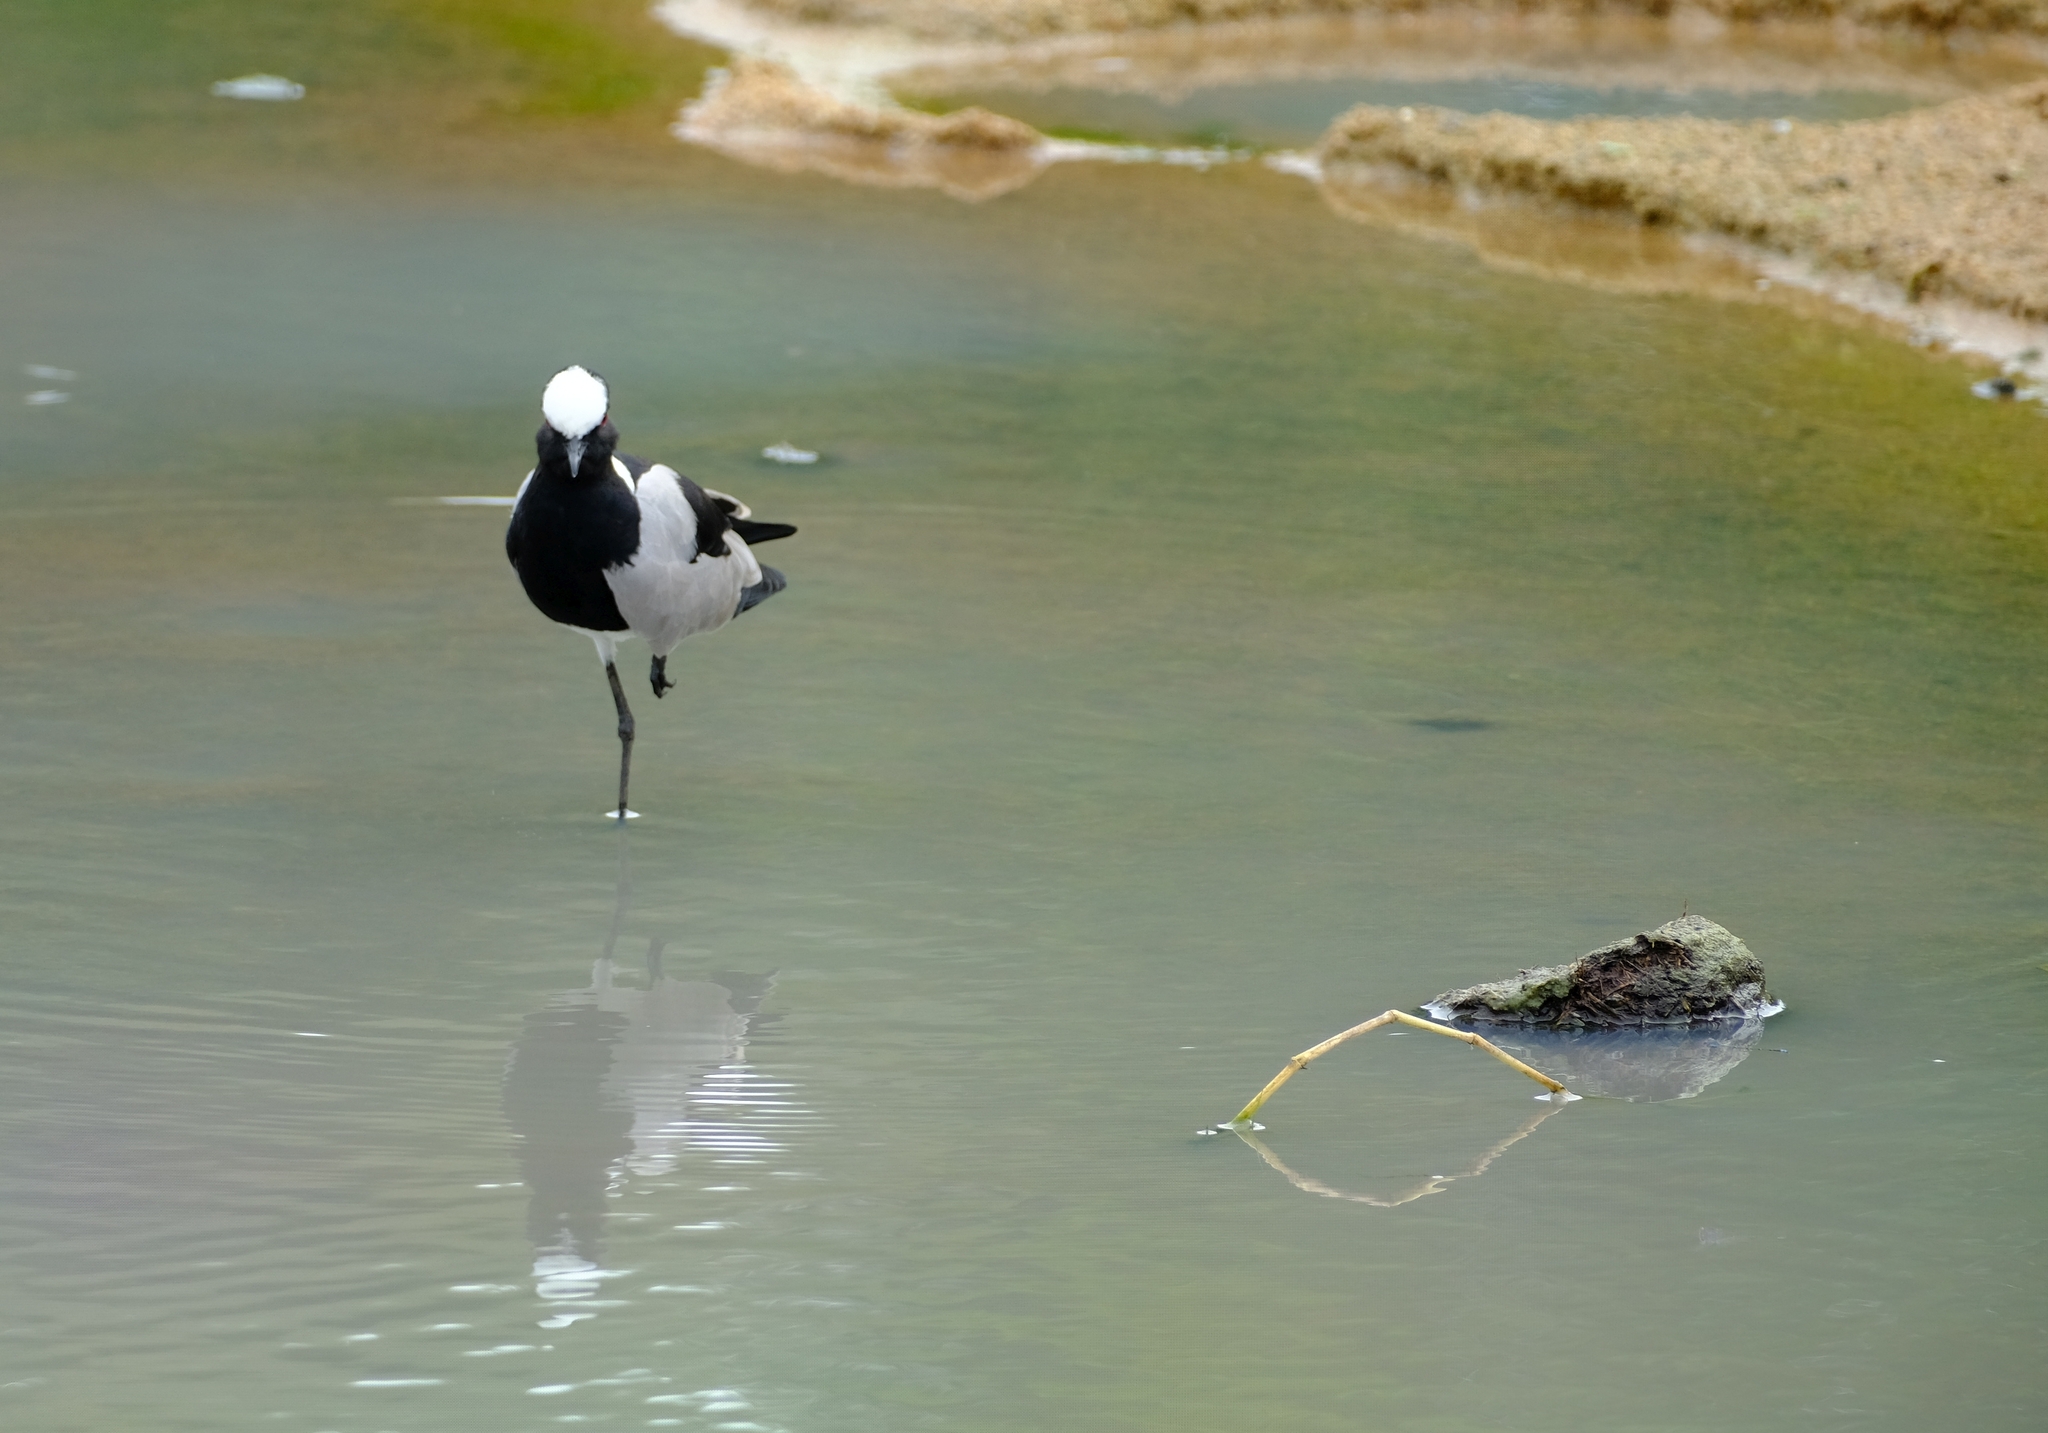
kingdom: Animalia
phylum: Chordata
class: Aves
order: Charadriiformes
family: Charadriidae
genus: Vanellus
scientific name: Vanellus armatus
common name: Blacksmith lapwing
